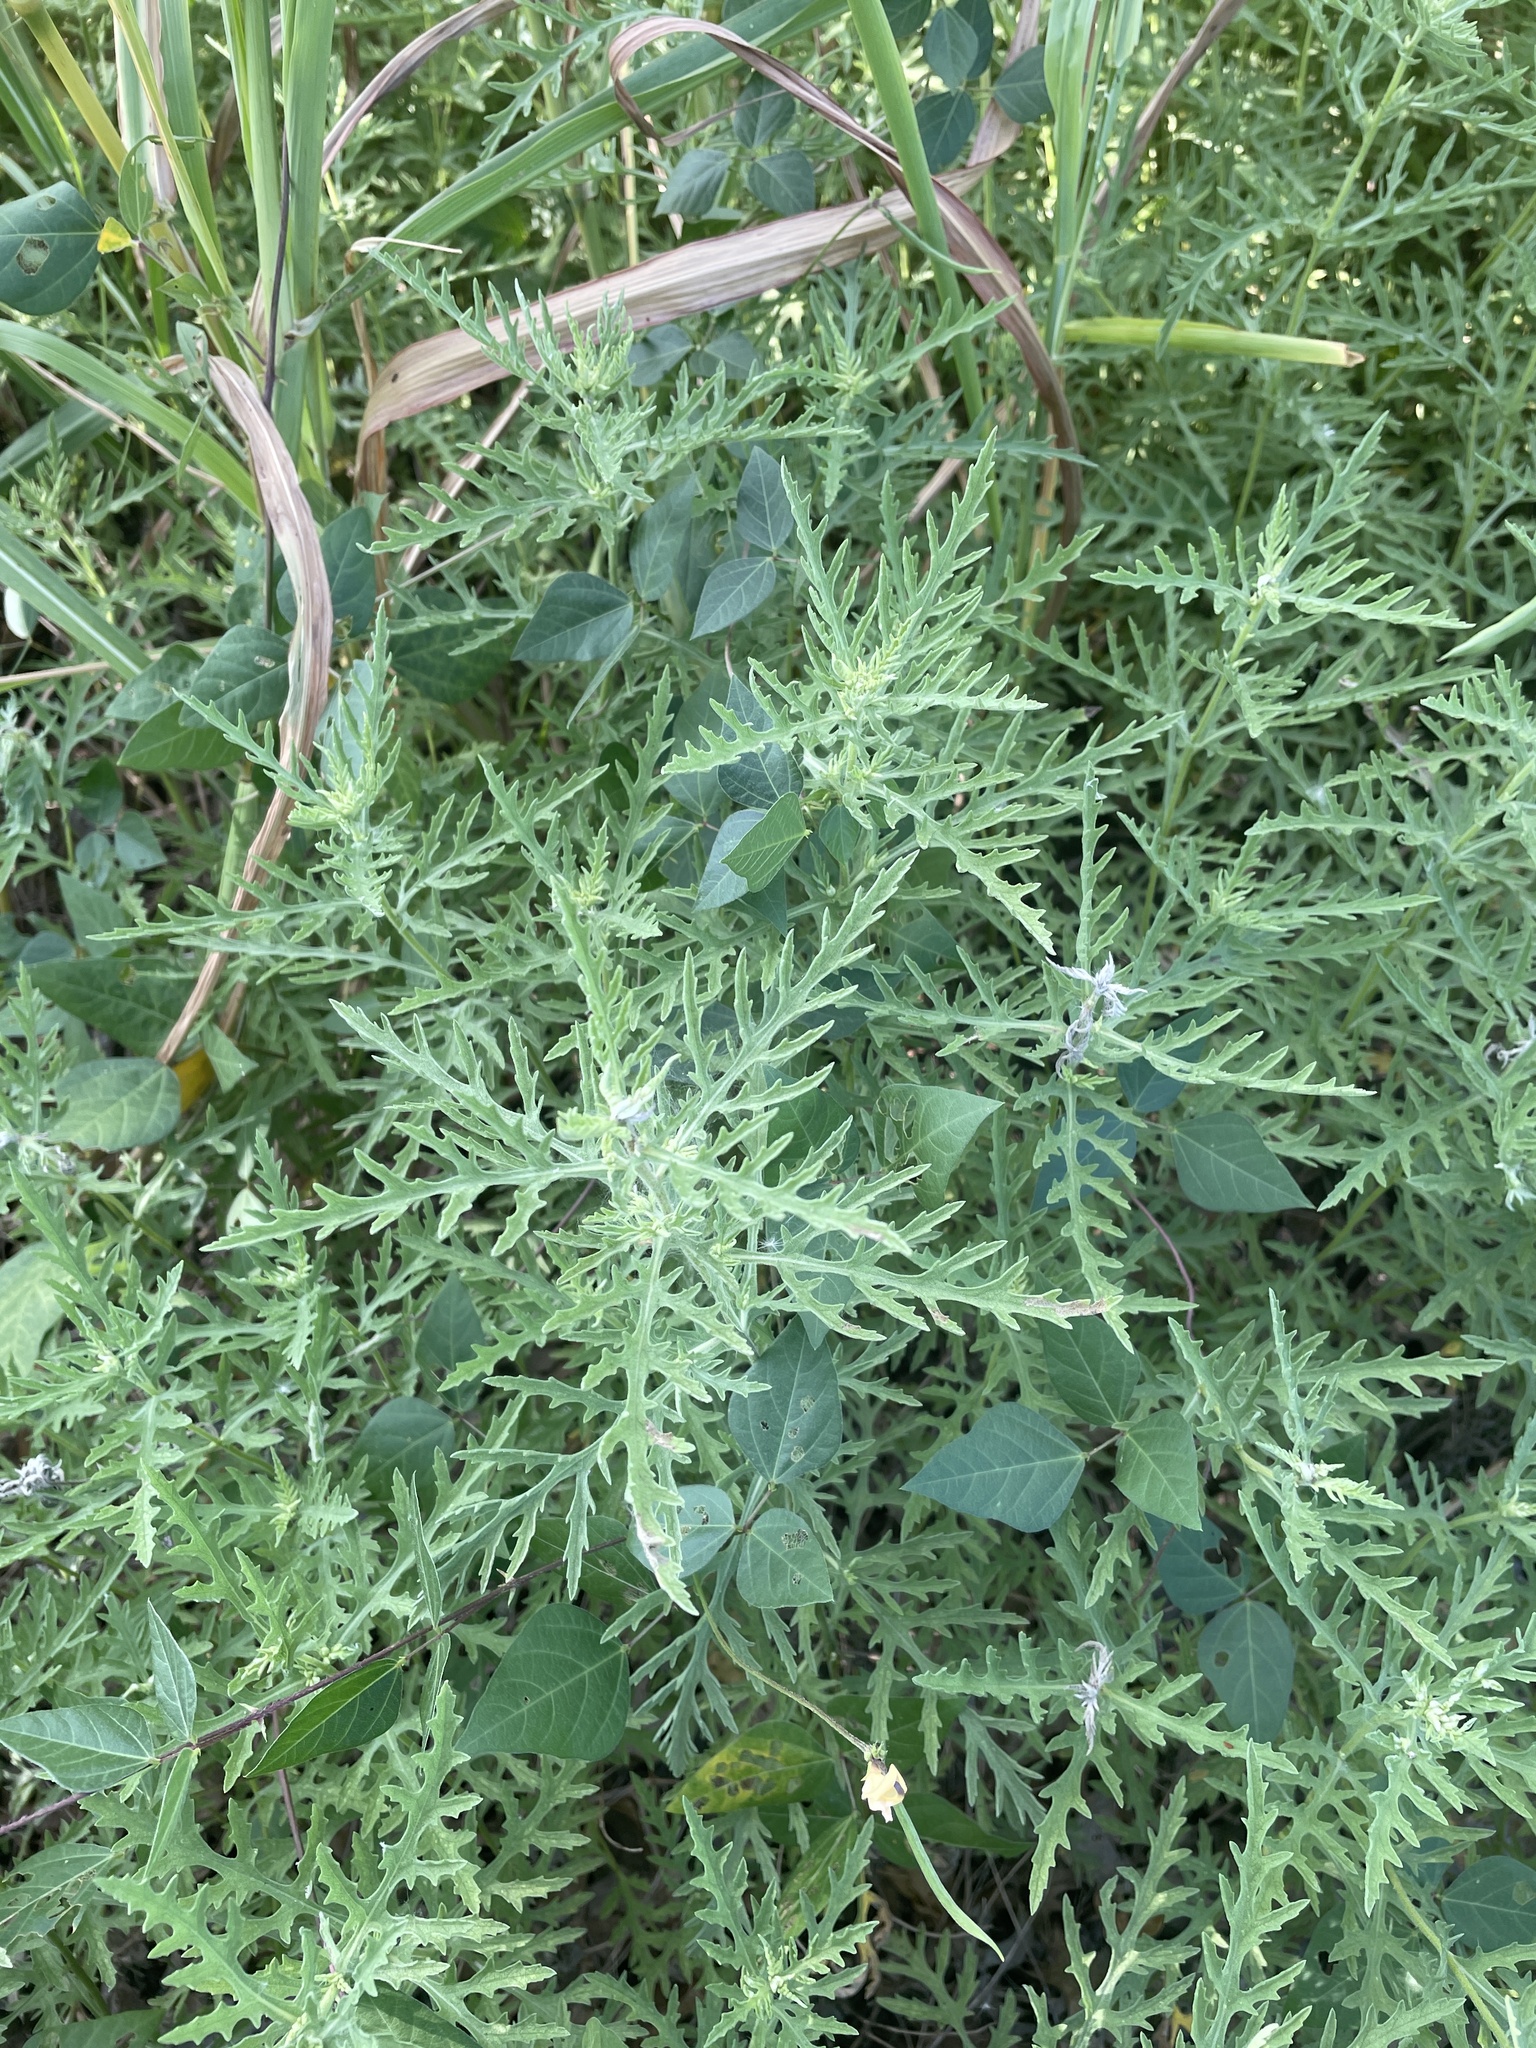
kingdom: Plantae
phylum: Tracheophyta
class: Magnoliopsida
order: Fabales
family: Fabaceae
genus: Strophostyles
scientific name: Strophostyles helvola
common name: Trailing wild bean
